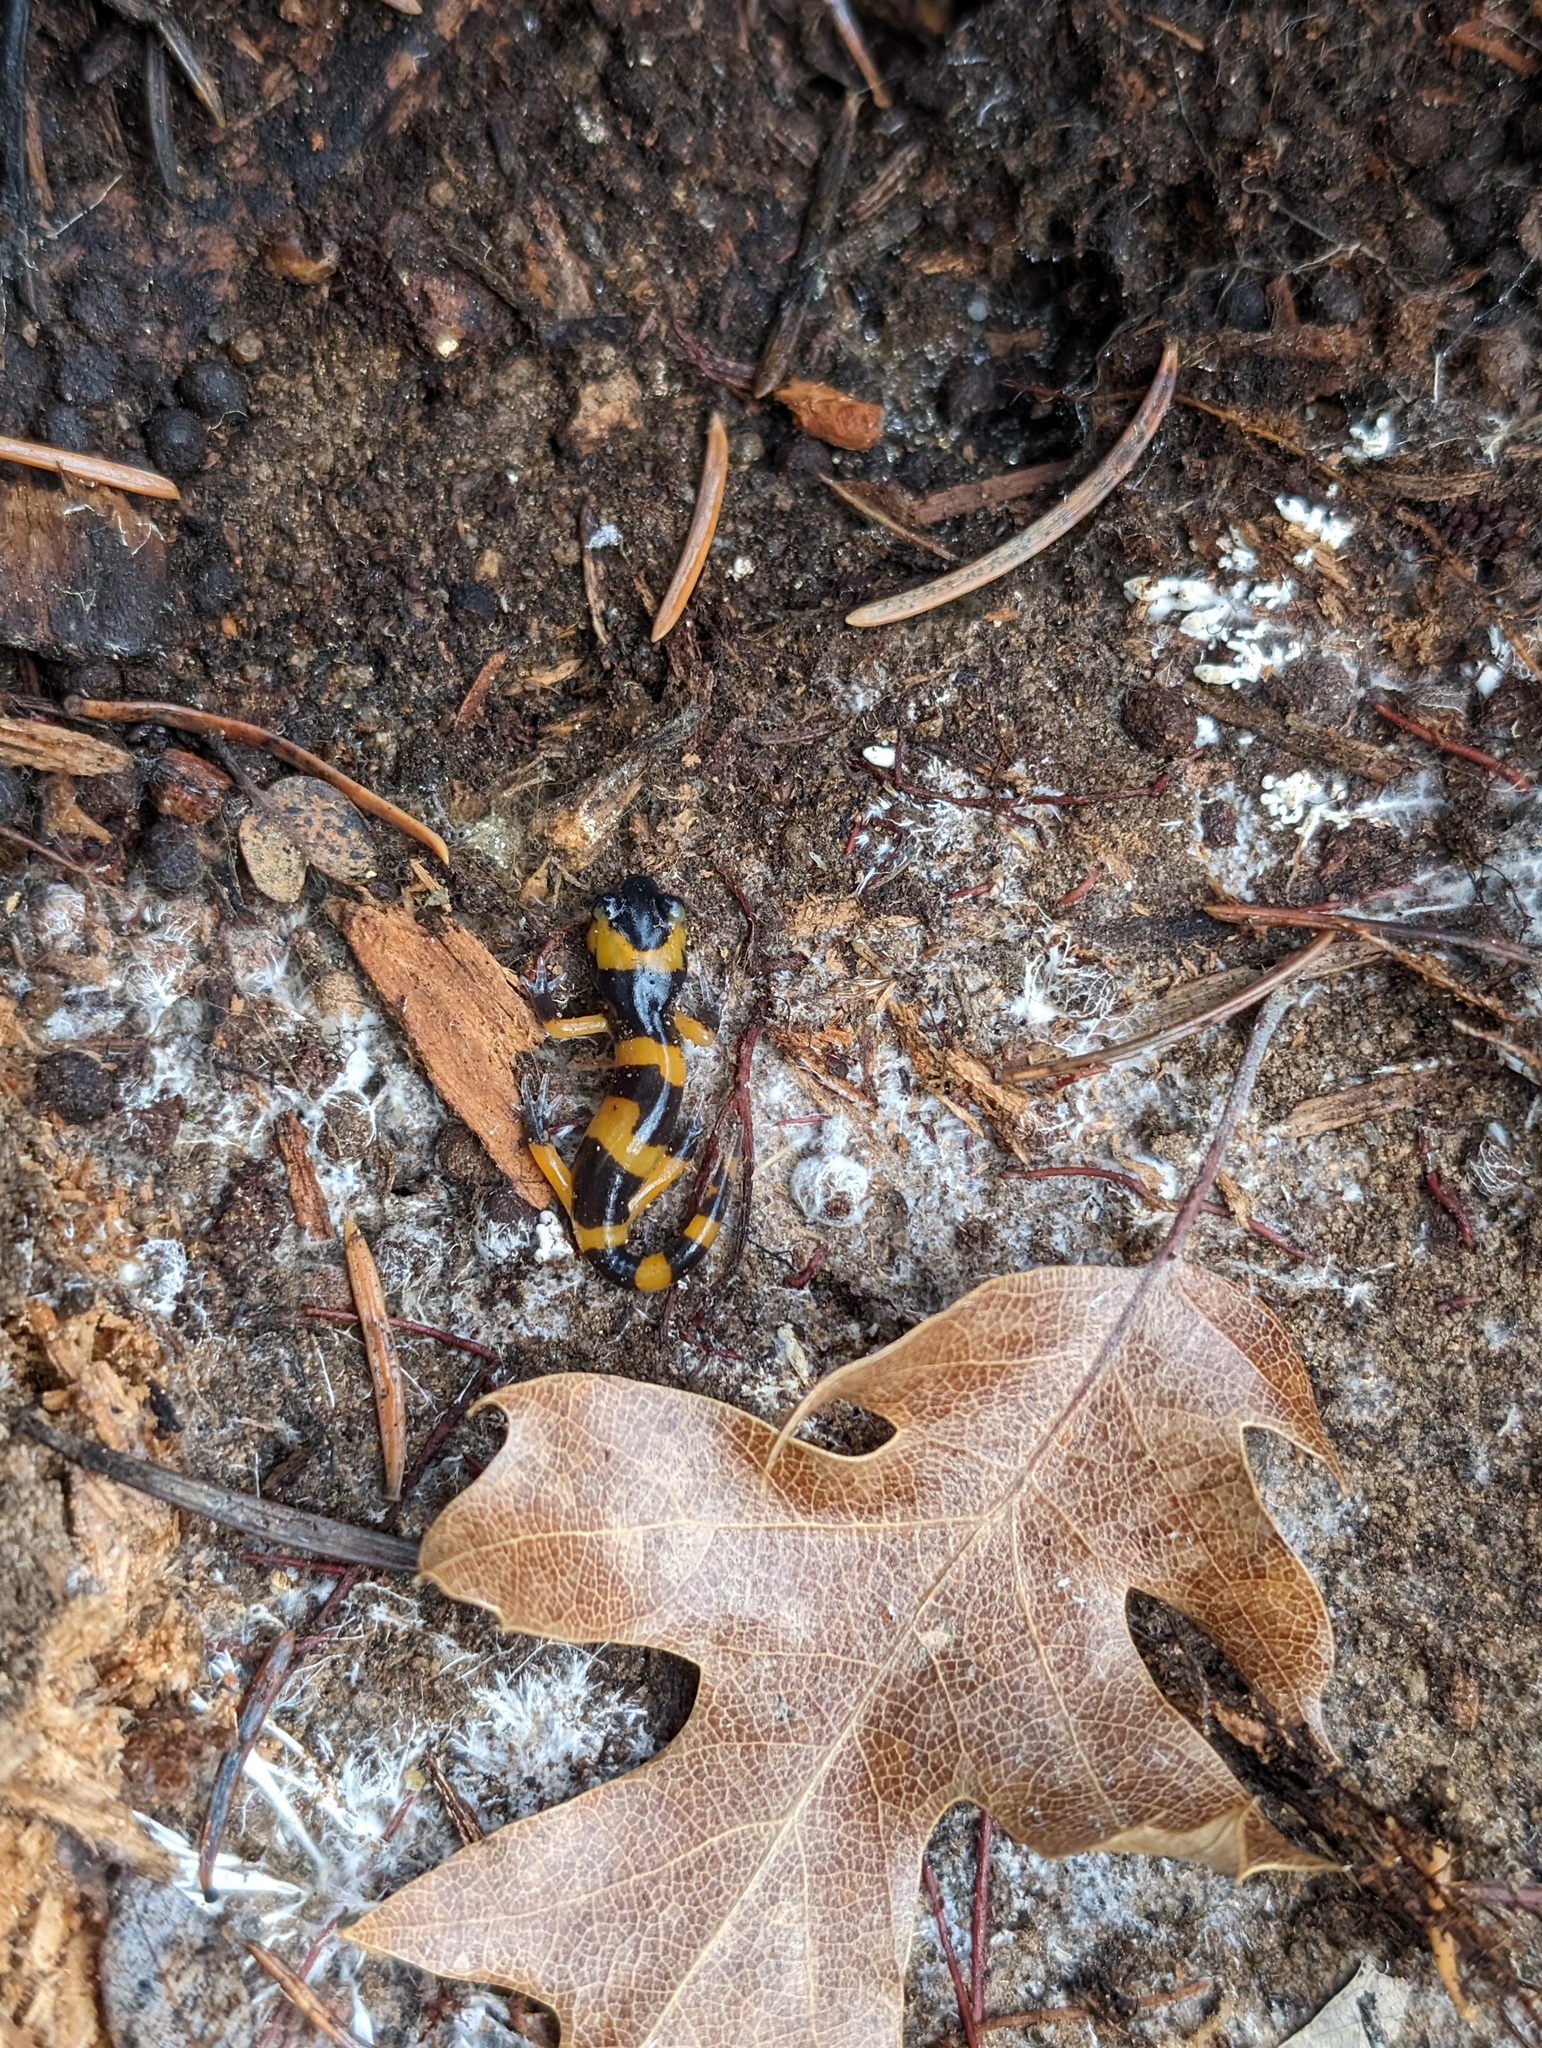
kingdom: Animalia
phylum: Chordata
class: Amphibia
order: Caudata
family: Plethodontidae
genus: Ensatina
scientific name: Ensatina eschscholtzii
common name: Ensatina
